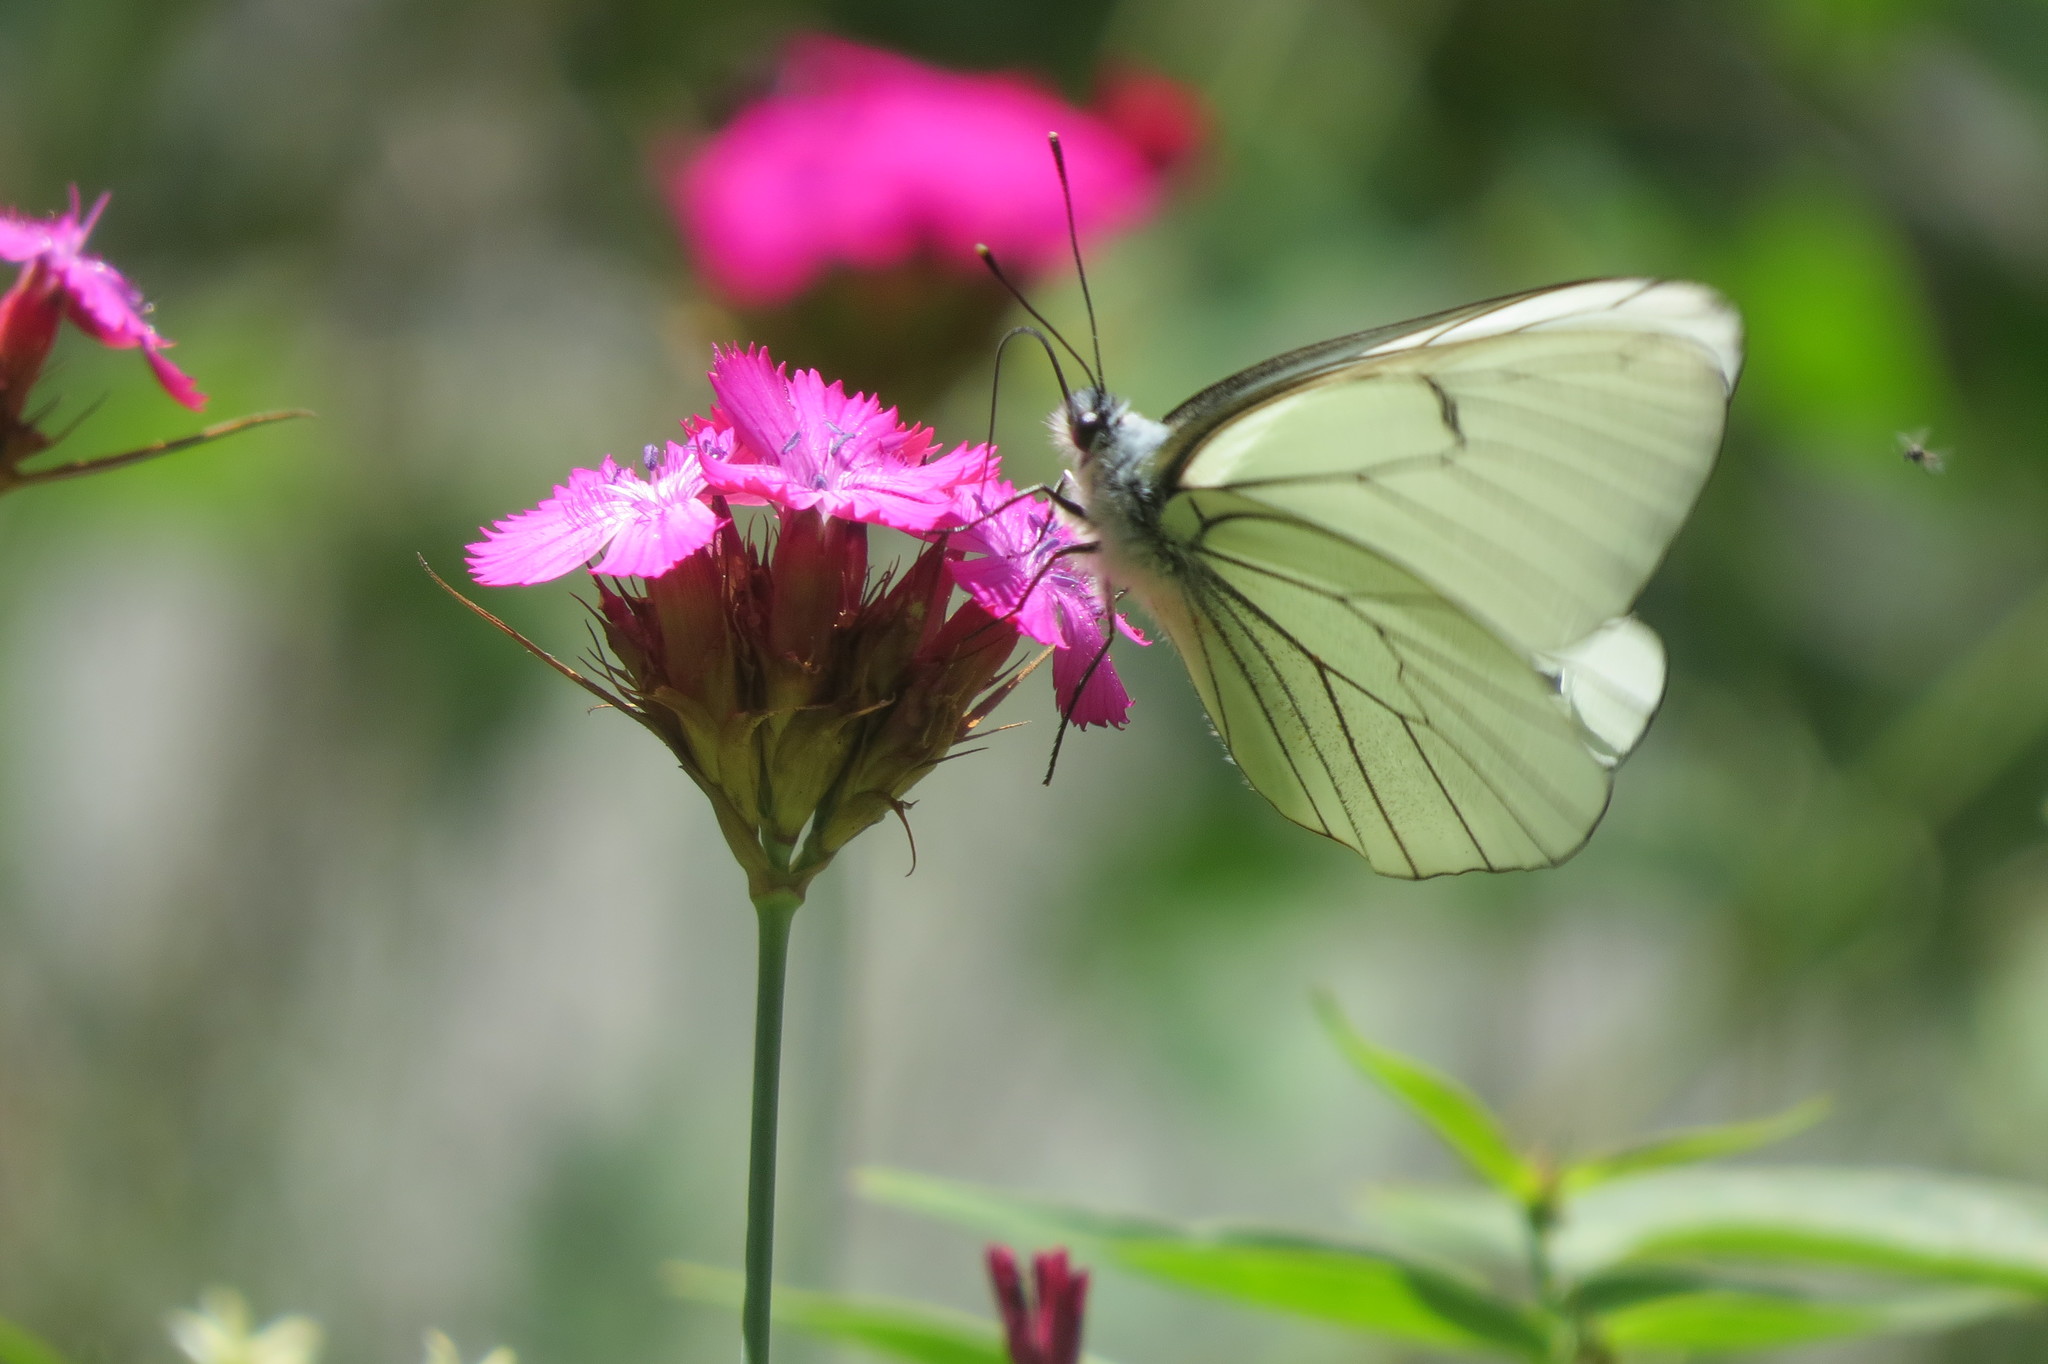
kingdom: Animalia
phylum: Arthropoda
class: Insecta
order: Lepidoptera
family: Pieridae
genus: Aporia
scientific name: Aporia crataegi
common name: Black-veined white
